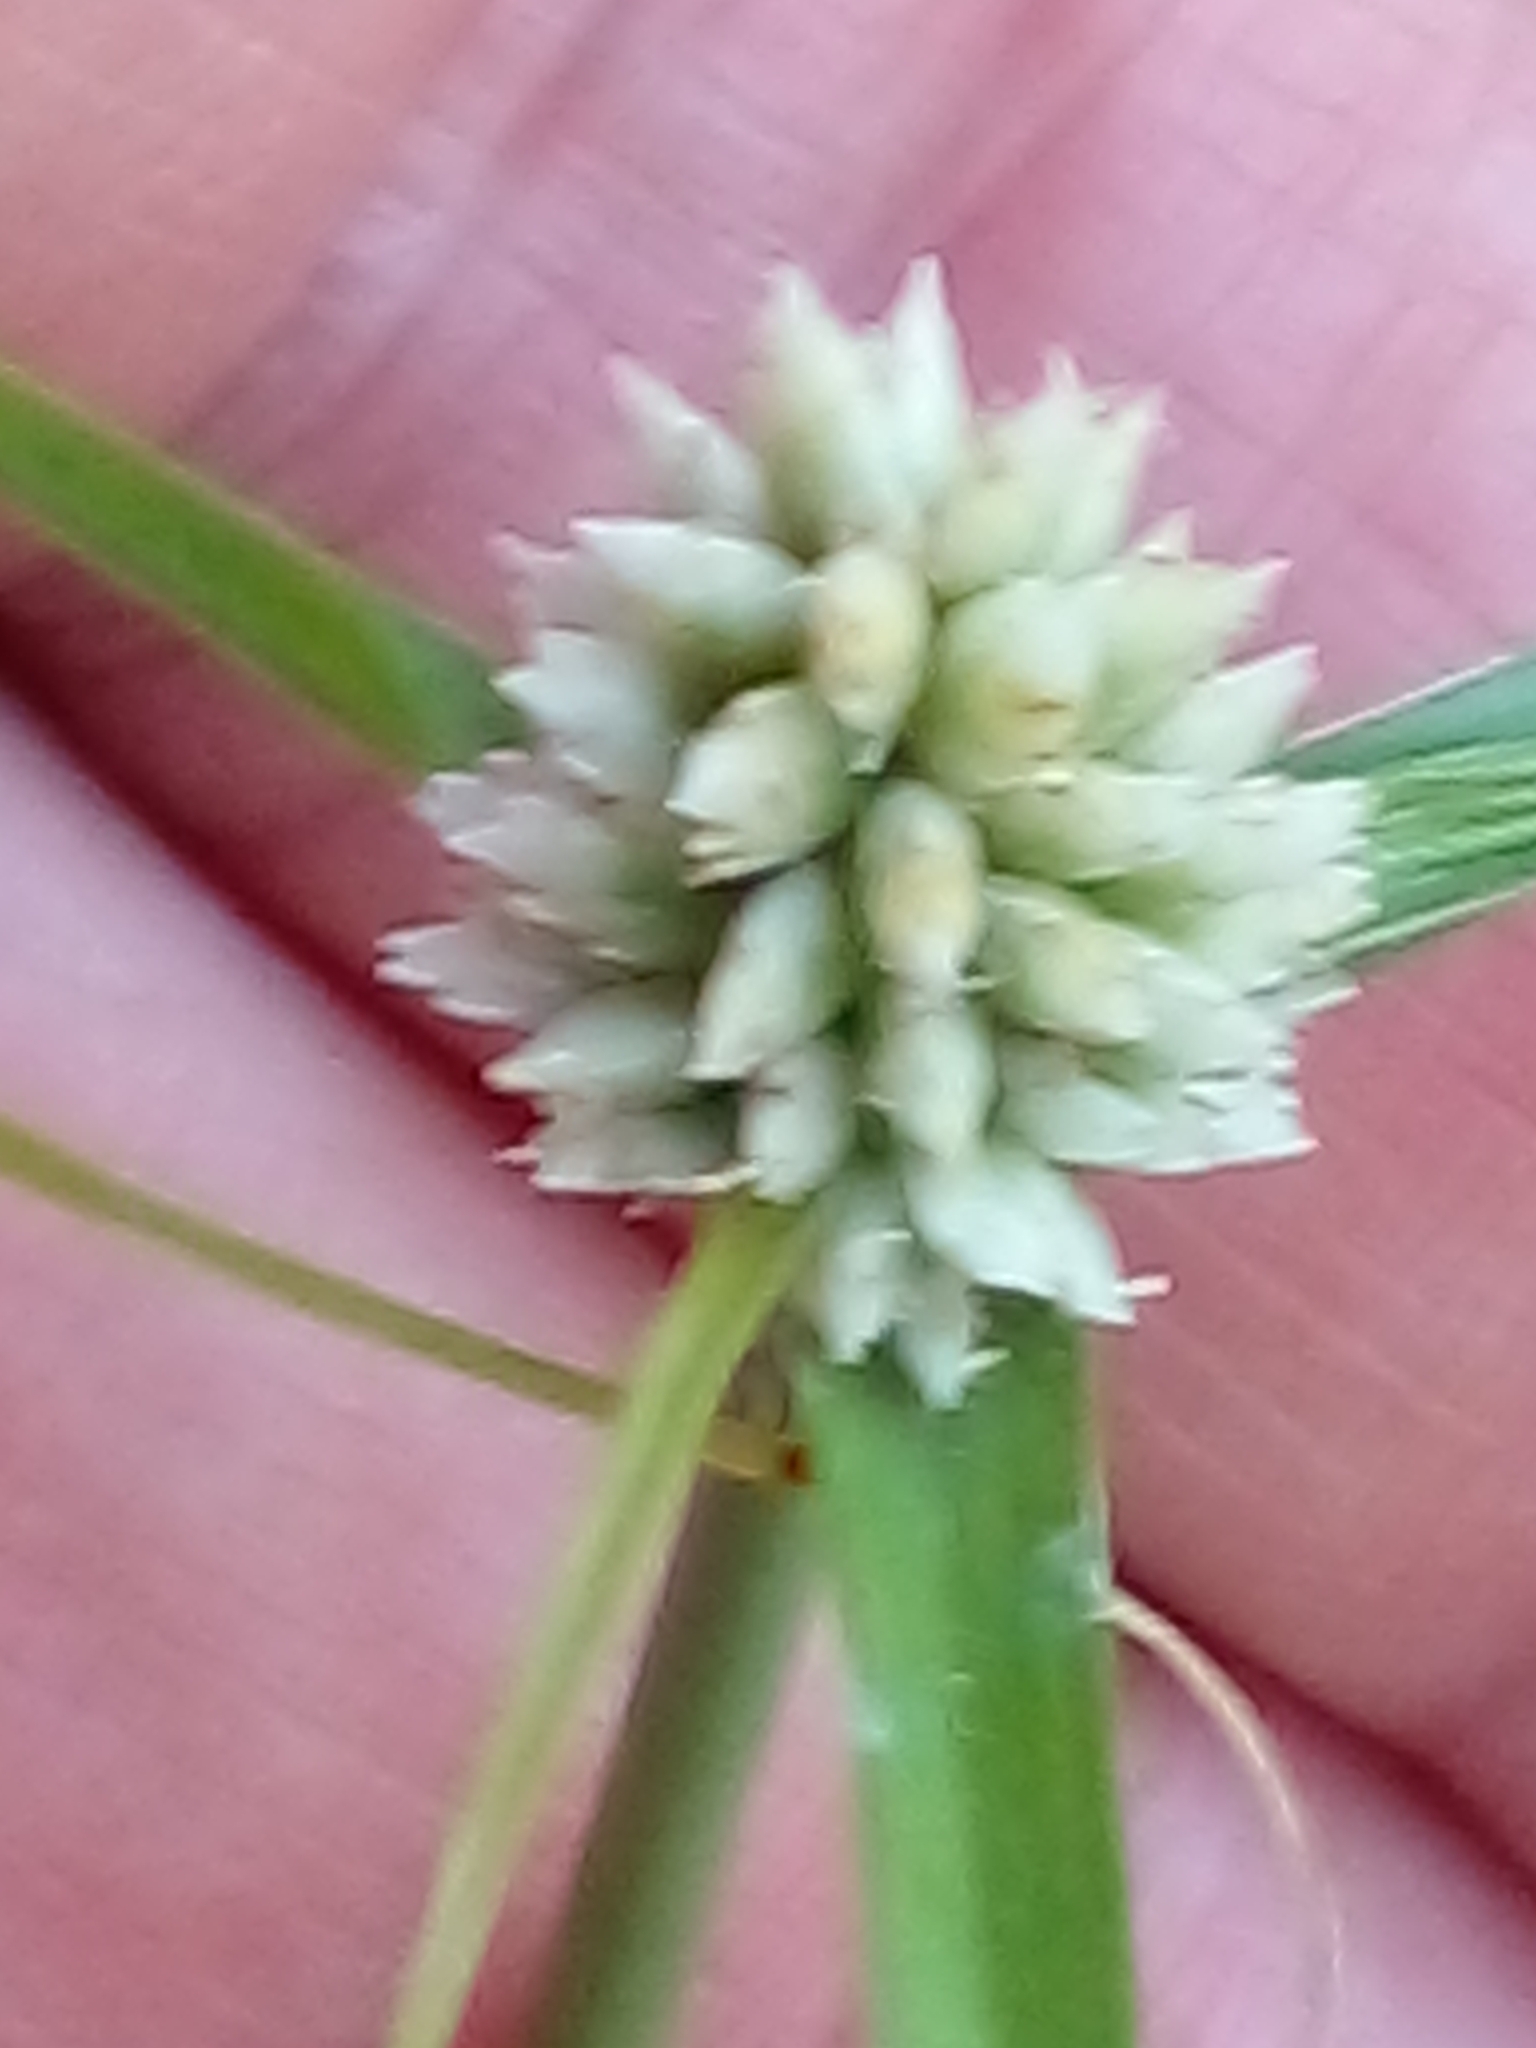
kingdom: Plantae
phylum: Tracheophyta
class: Liliopsida
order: Poales
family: Cyperaceae
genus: Cyperus
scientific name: Cyperus dubius
